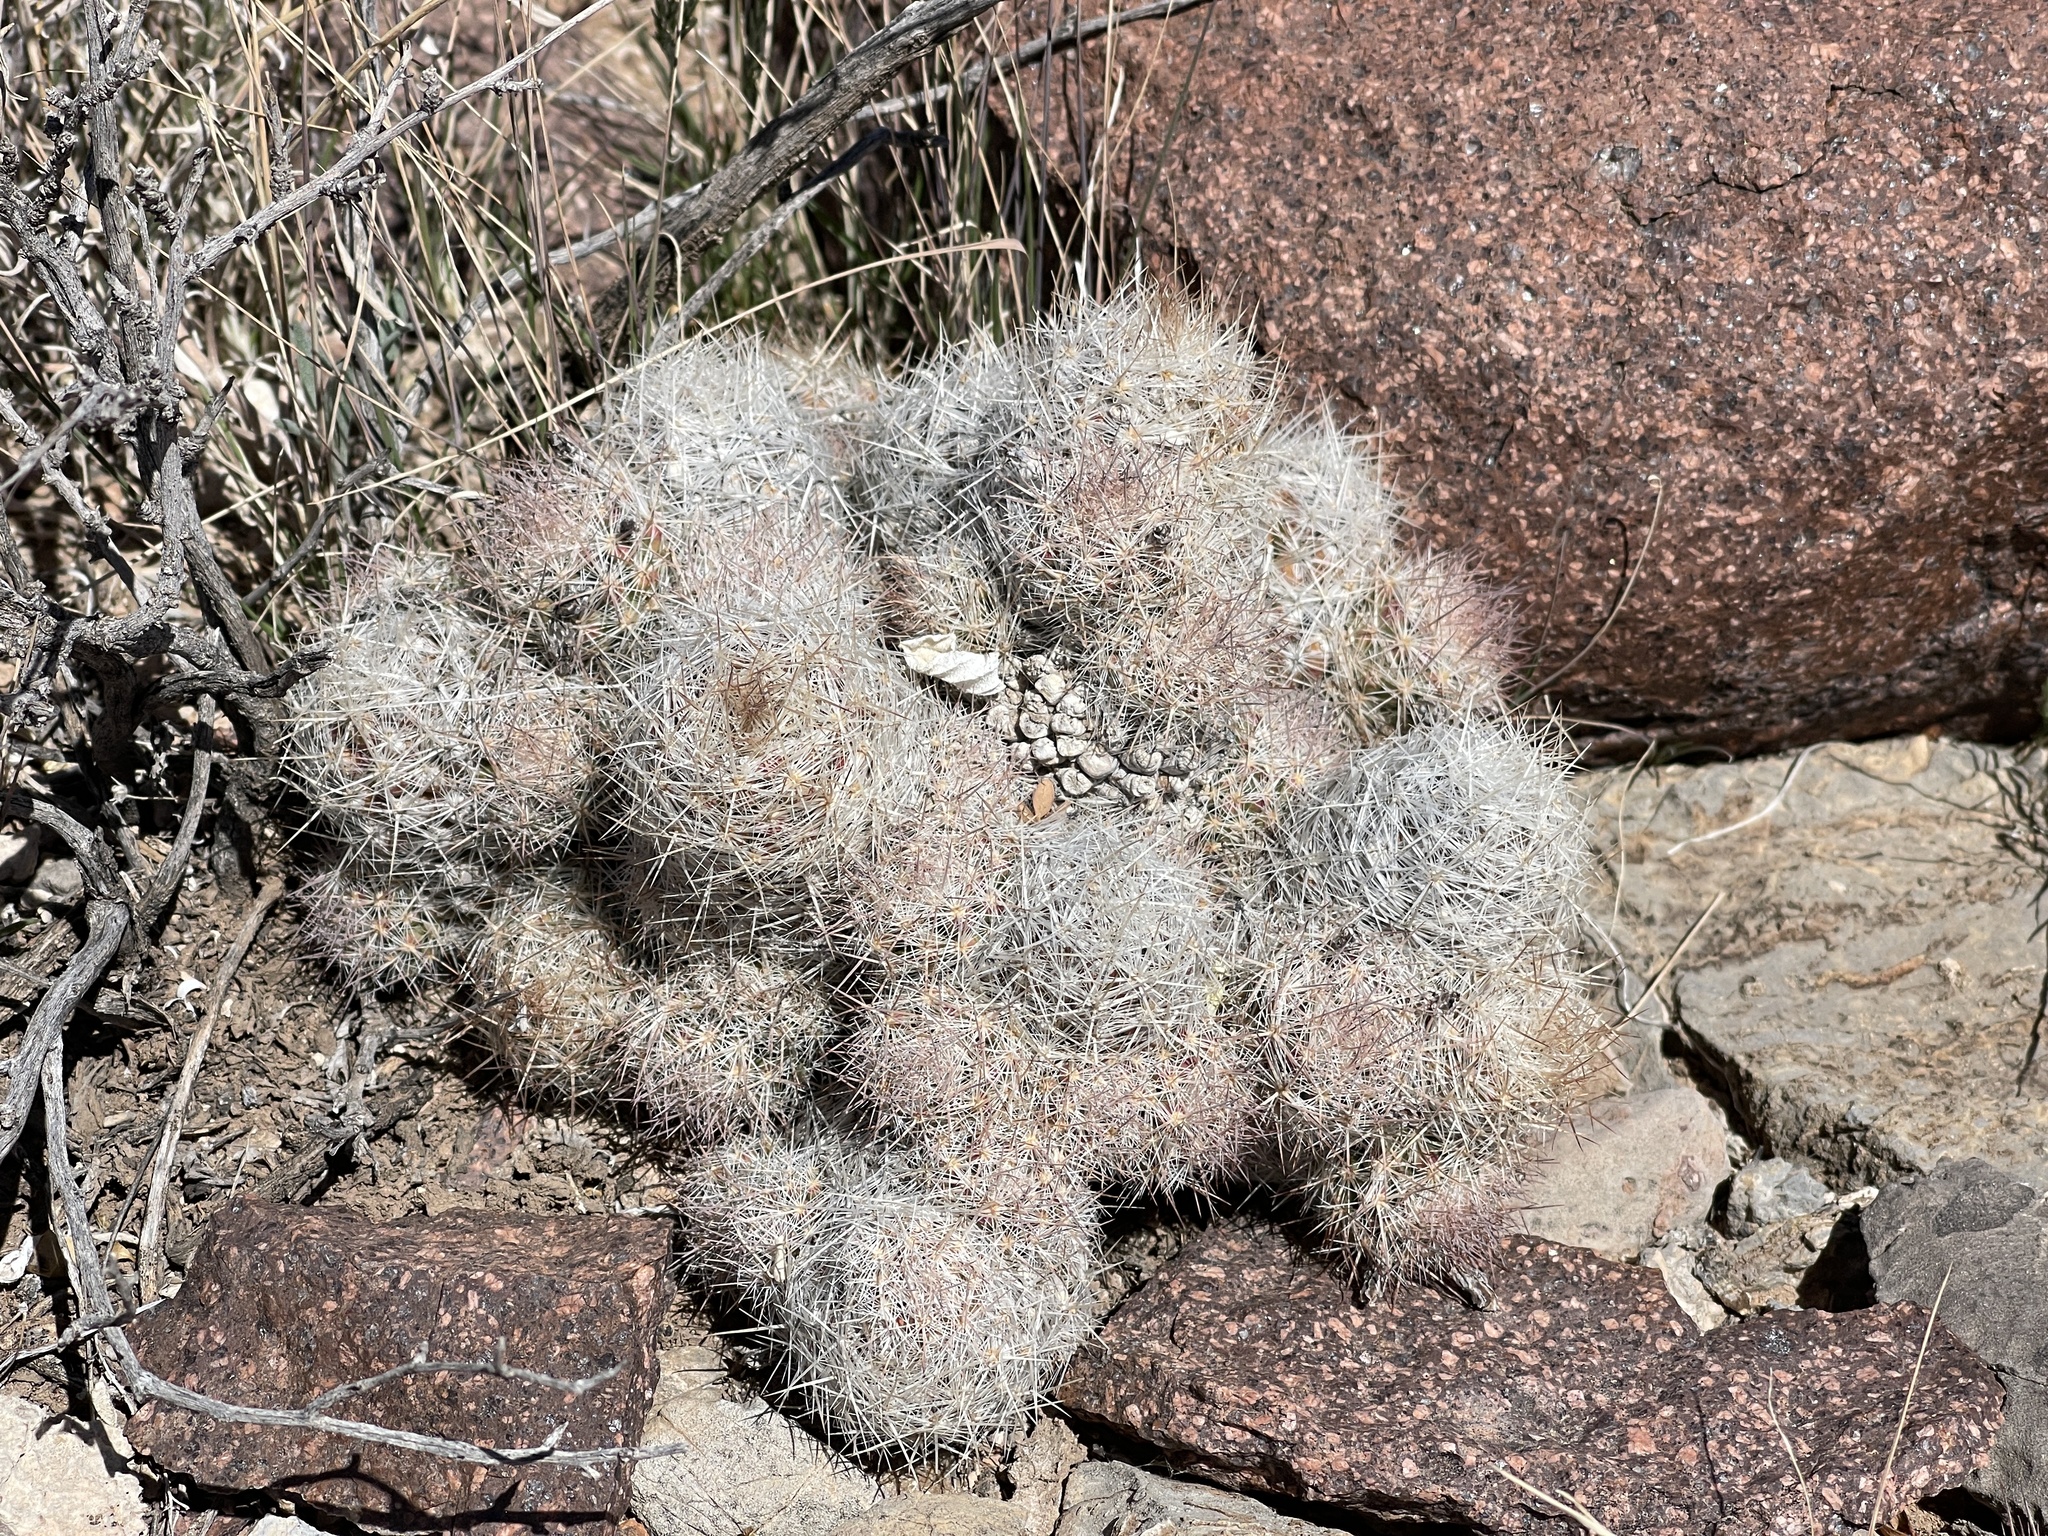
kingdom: Plantae
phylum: Tracheophyta
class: Magnoliopsida
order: Caryophyllales
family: Cactaceae
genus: Pelecyphora
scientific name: Pelecyphora tuberculosa
